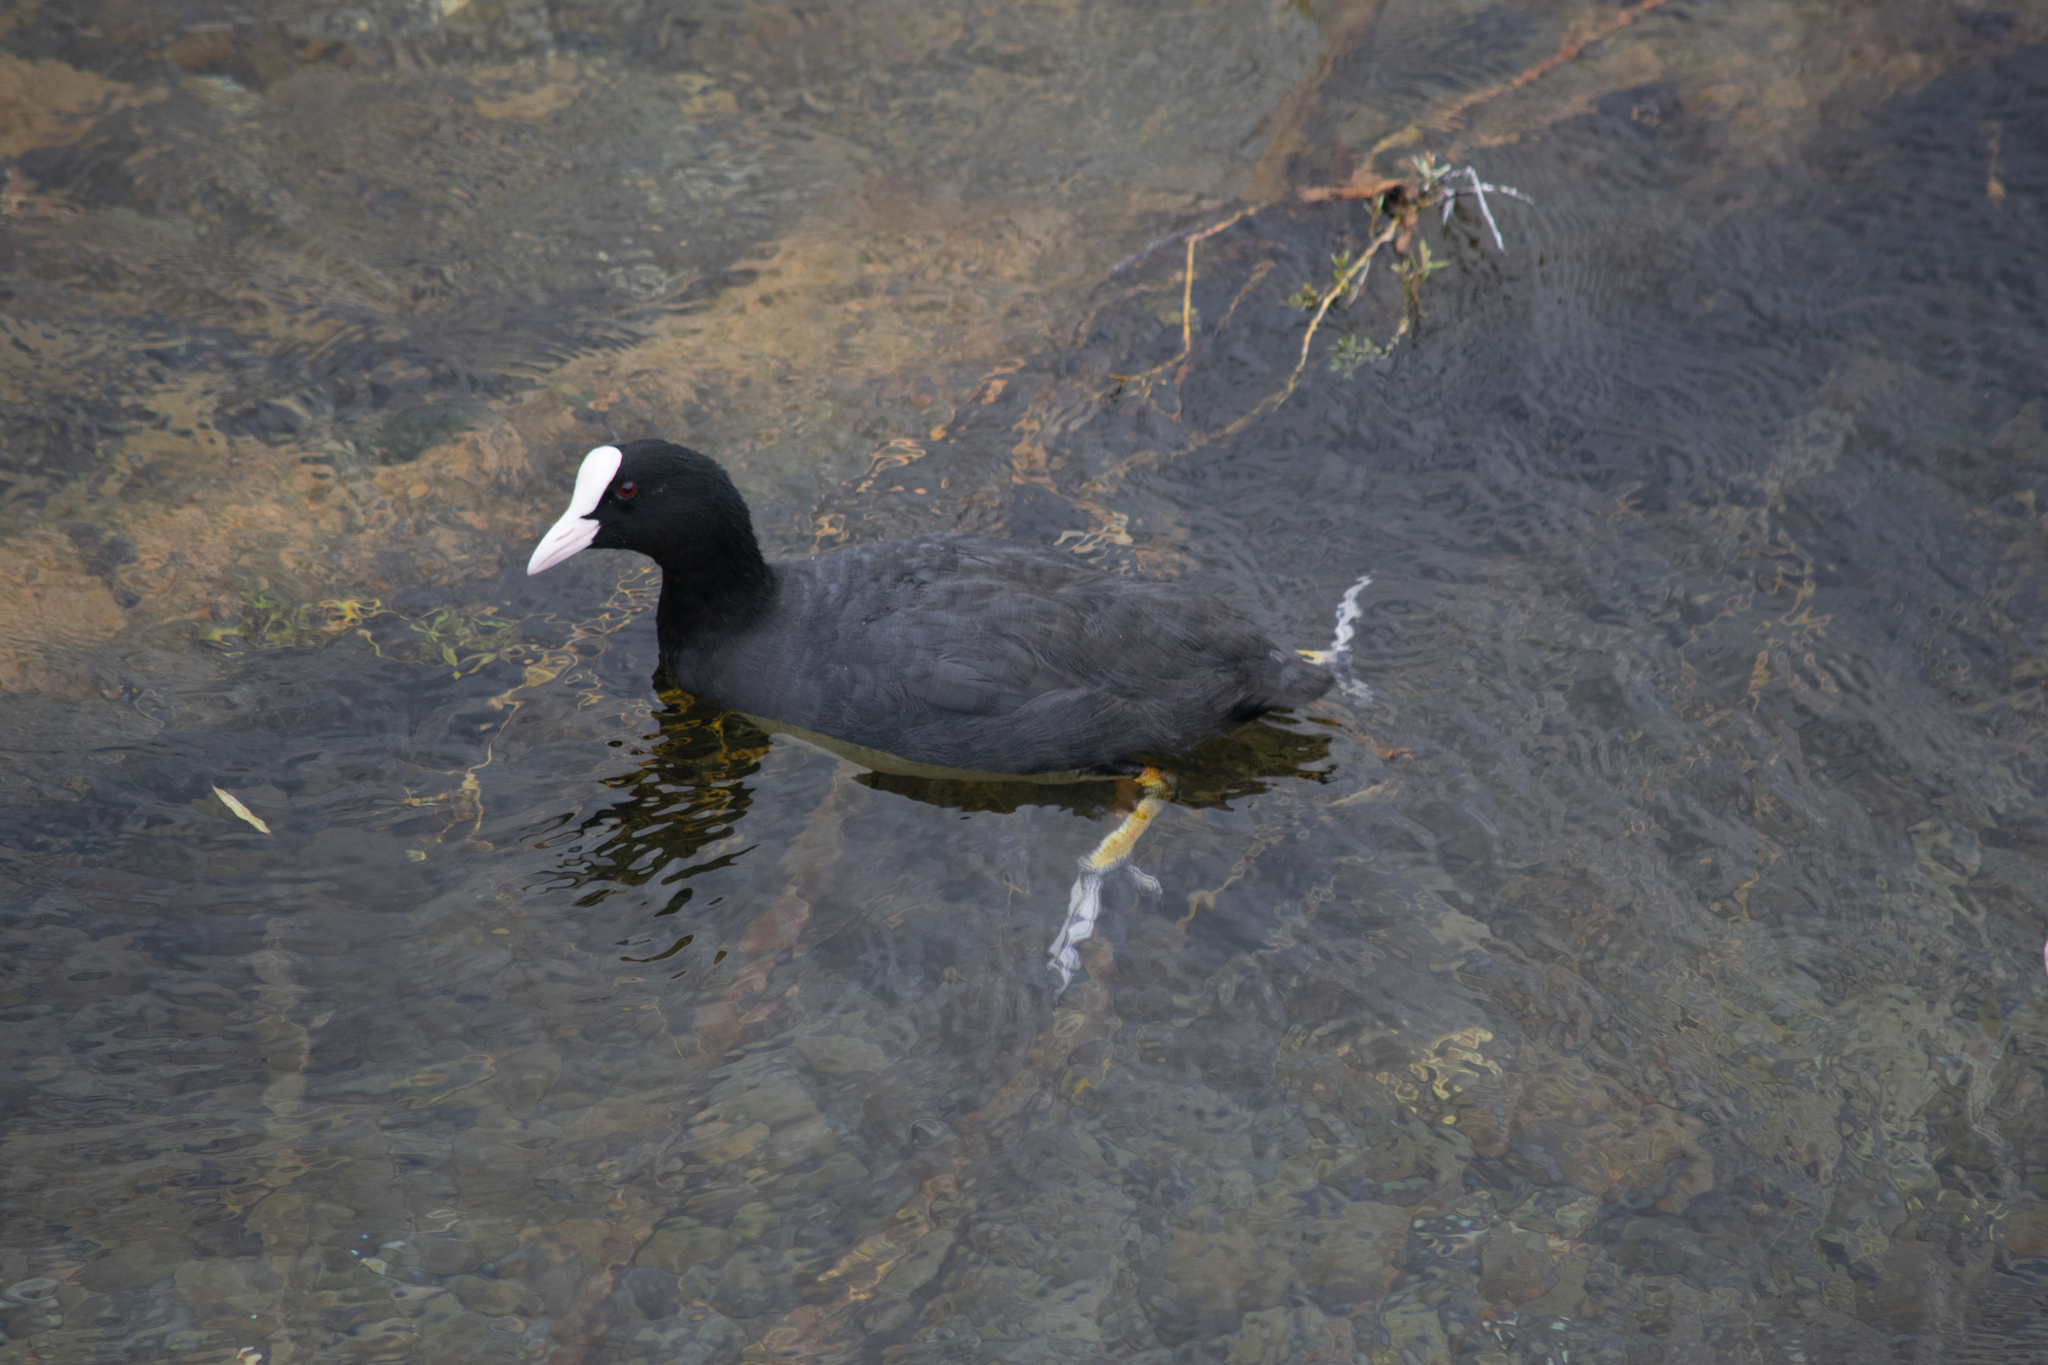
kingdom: Animalia
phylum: Chordata
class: Aves
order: Gruiformes
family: Rallidae
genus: Fulica
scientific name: Fulica atra
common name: Eurasian coot
